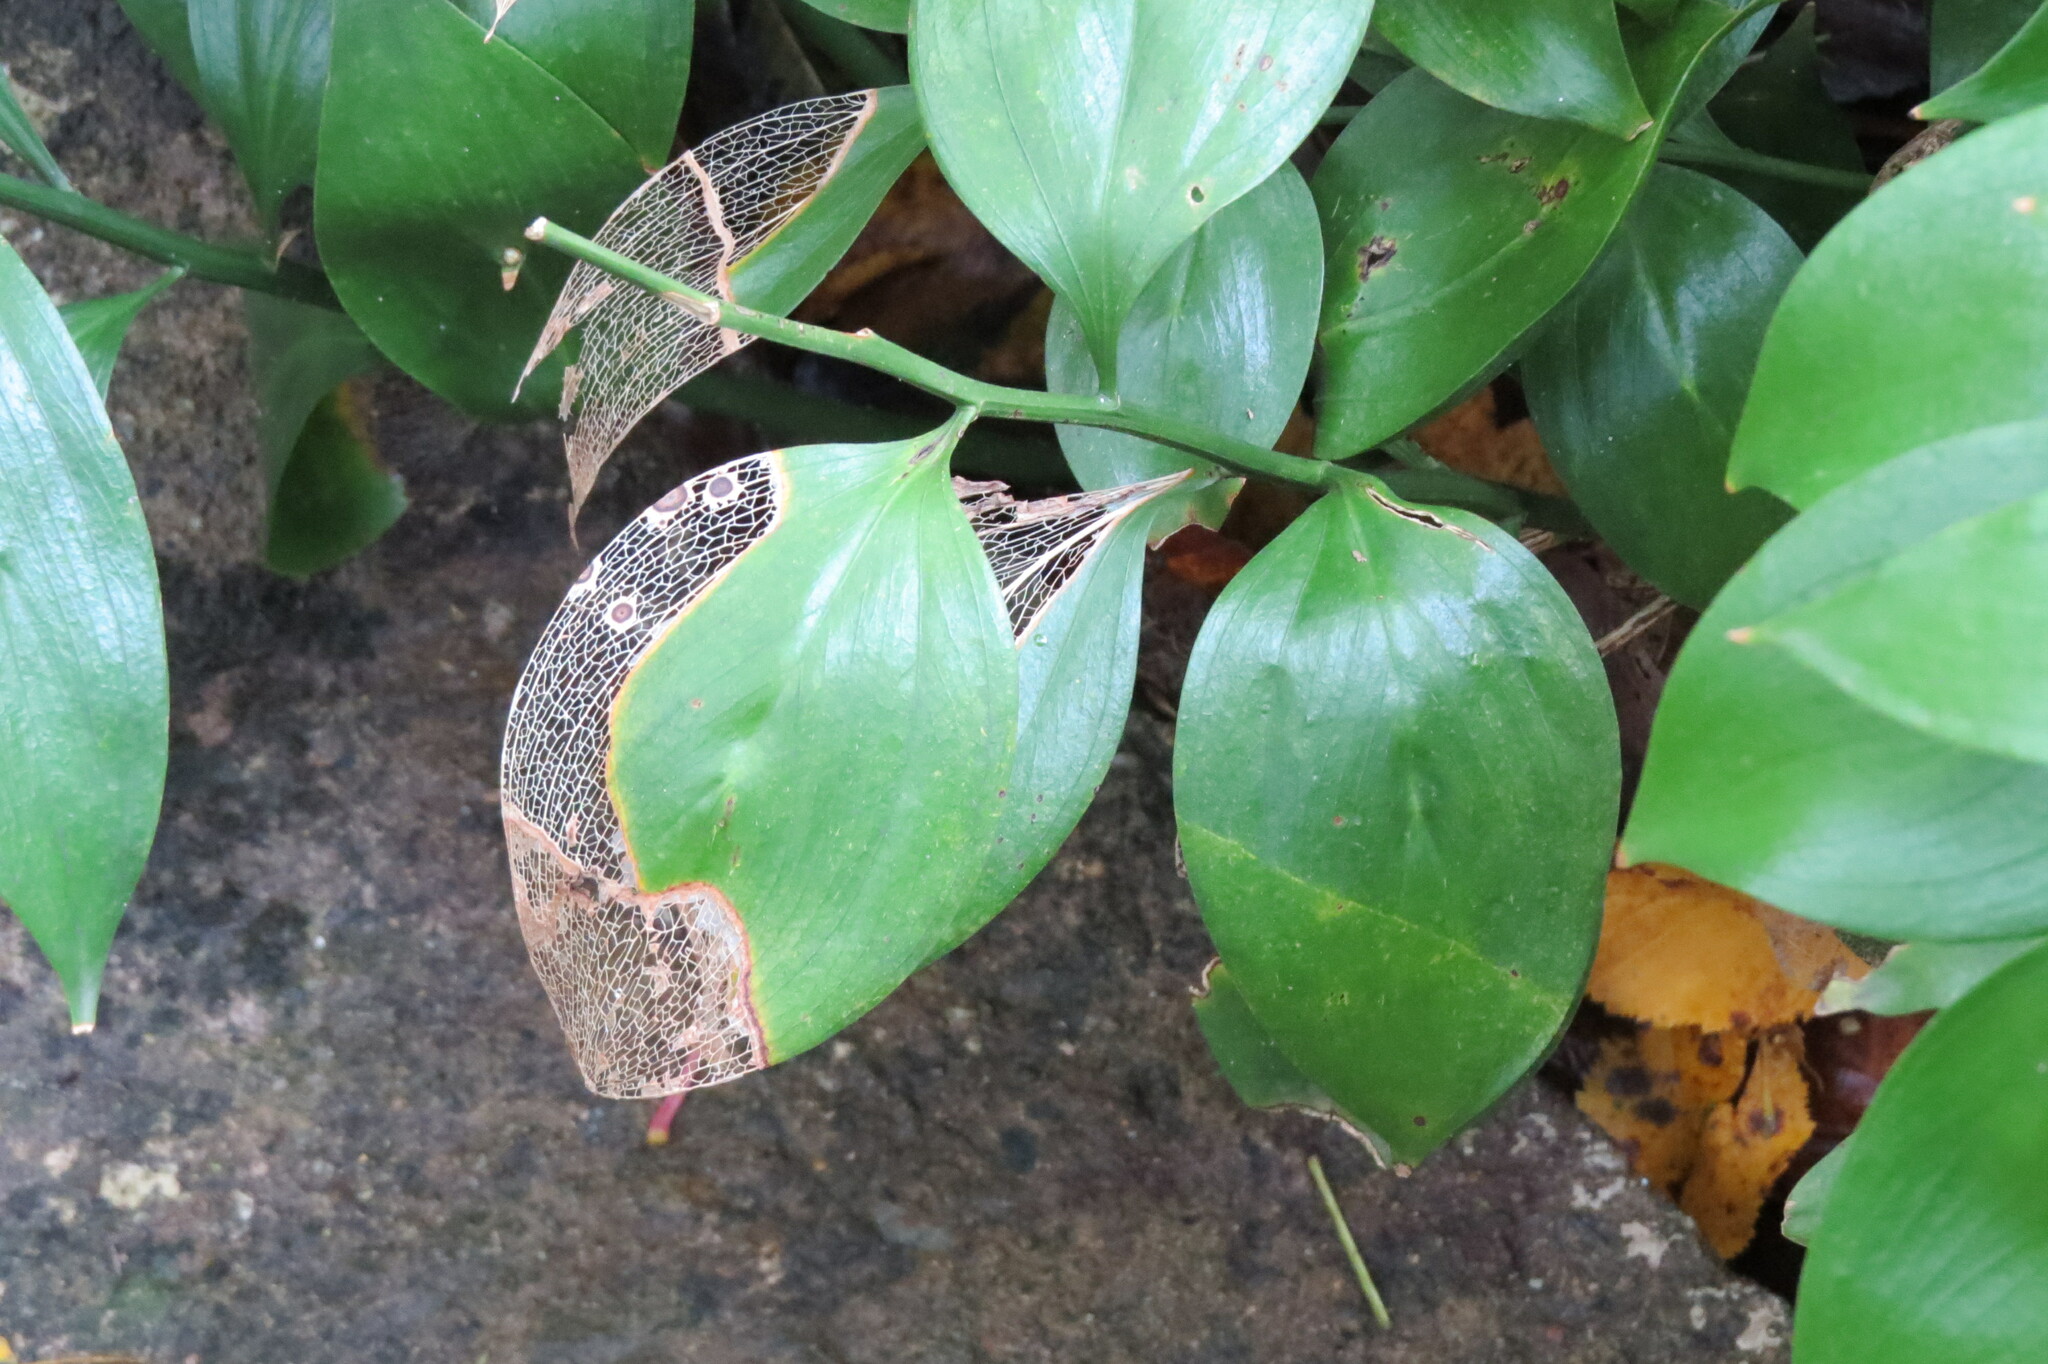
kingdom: Plantae
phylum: Tracheophyta
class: Liliopsida
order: Asparagales
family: Asparagaceae
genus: Ruscus
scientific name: Ruscus colchicus
